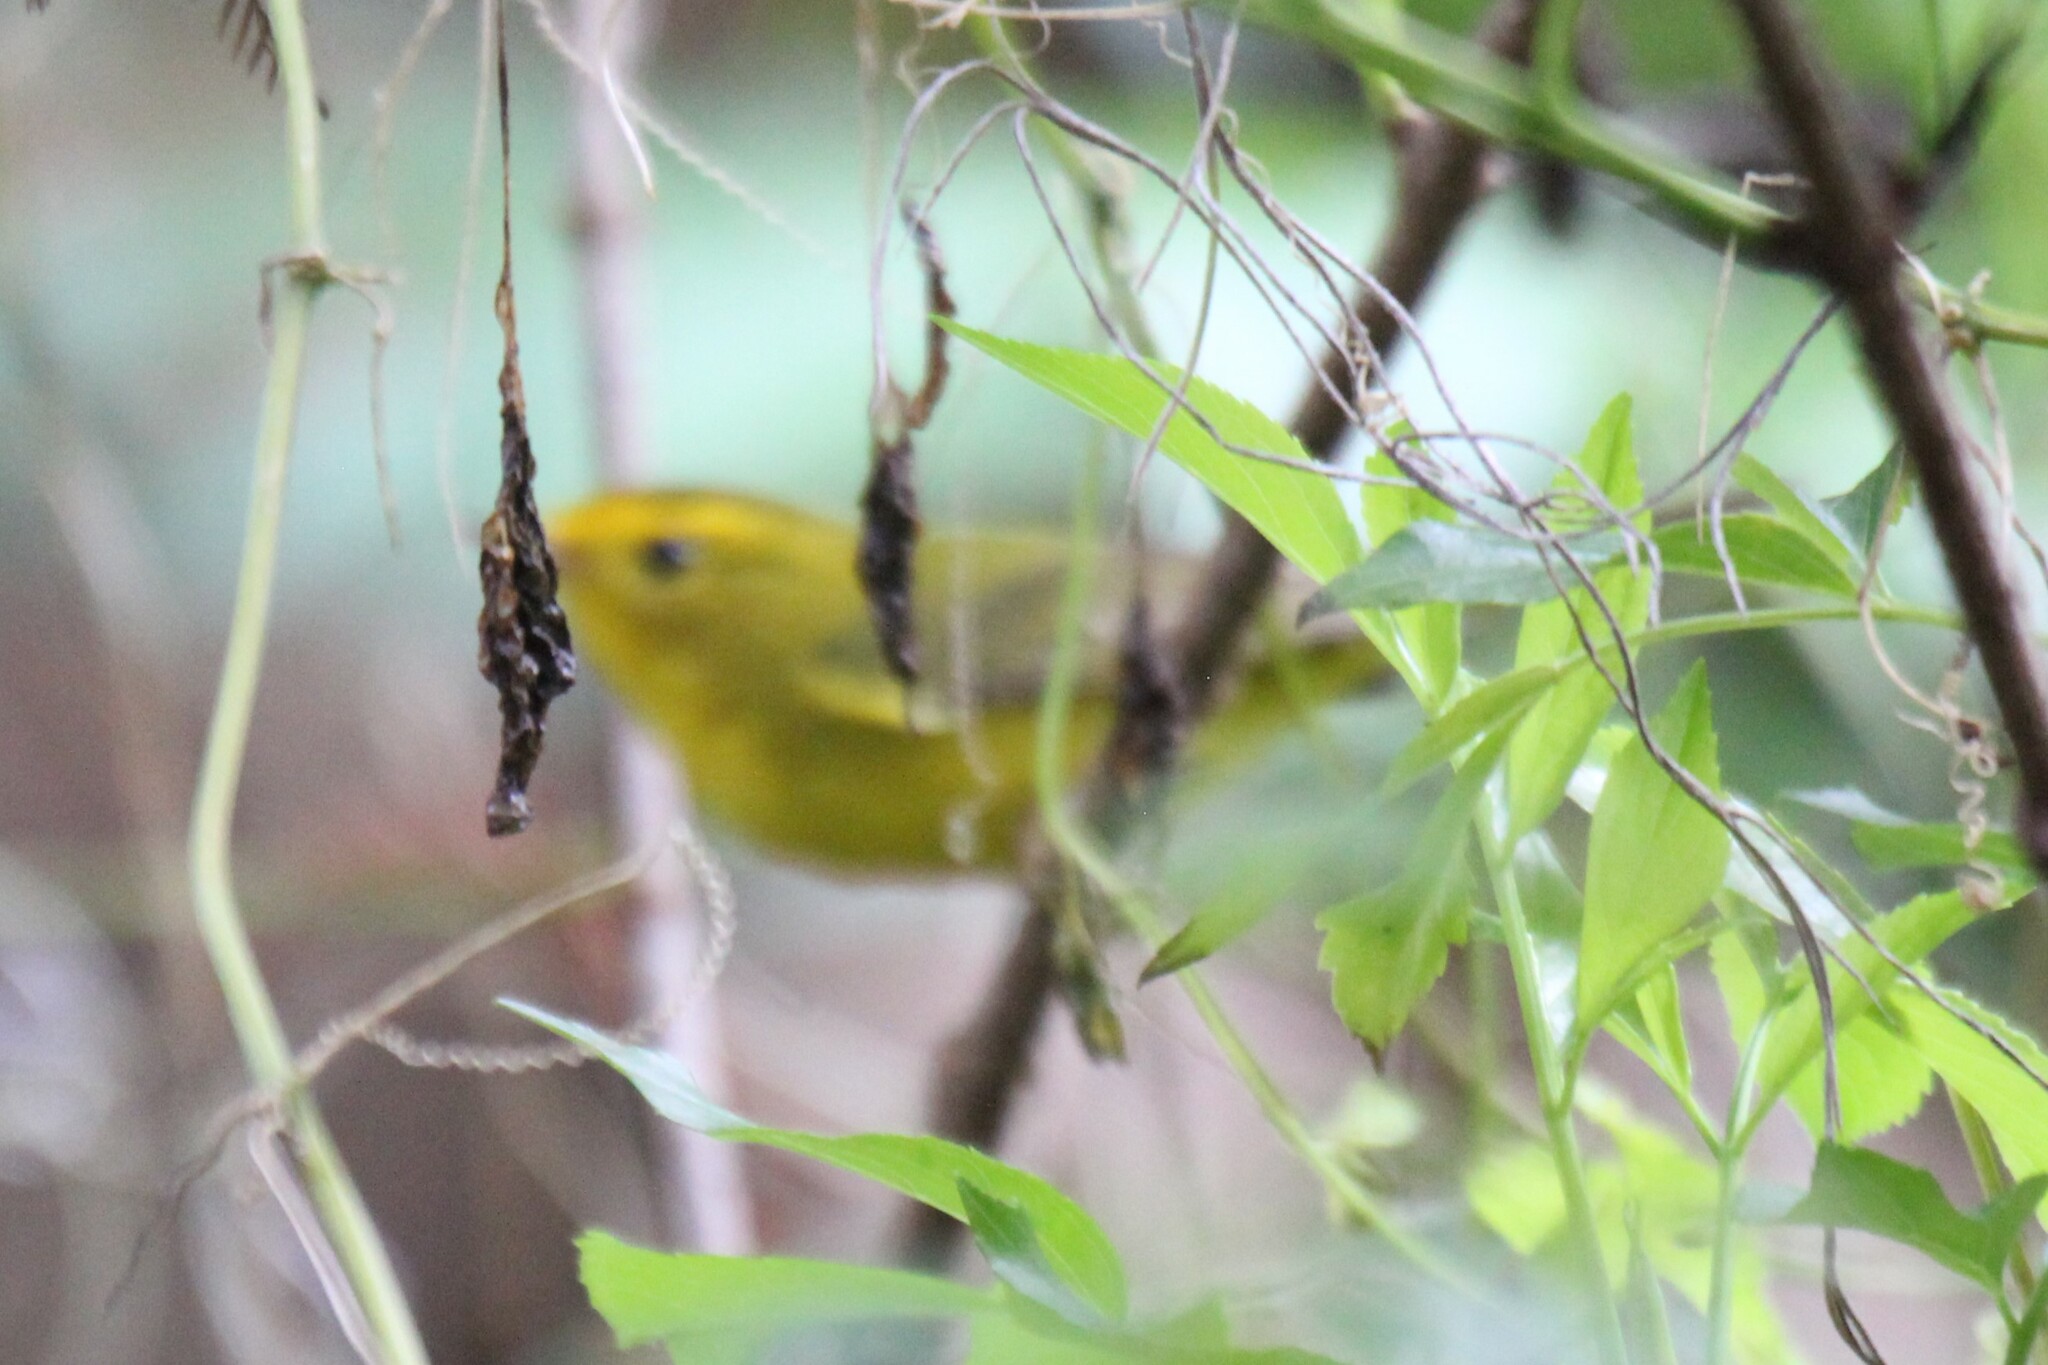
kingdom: Animalia
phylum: Chordata
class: Aves
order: Passeriformes
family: Parulidae
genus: Cardellina
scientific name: Cardellina pusilla
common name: Wilson's warbler
